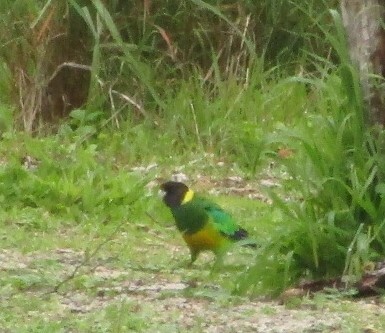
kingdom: Animalia
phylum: Chordata
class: Aves
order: Psittaciformes
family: Psittacidae
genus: Barnardius
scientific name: Barnardius
